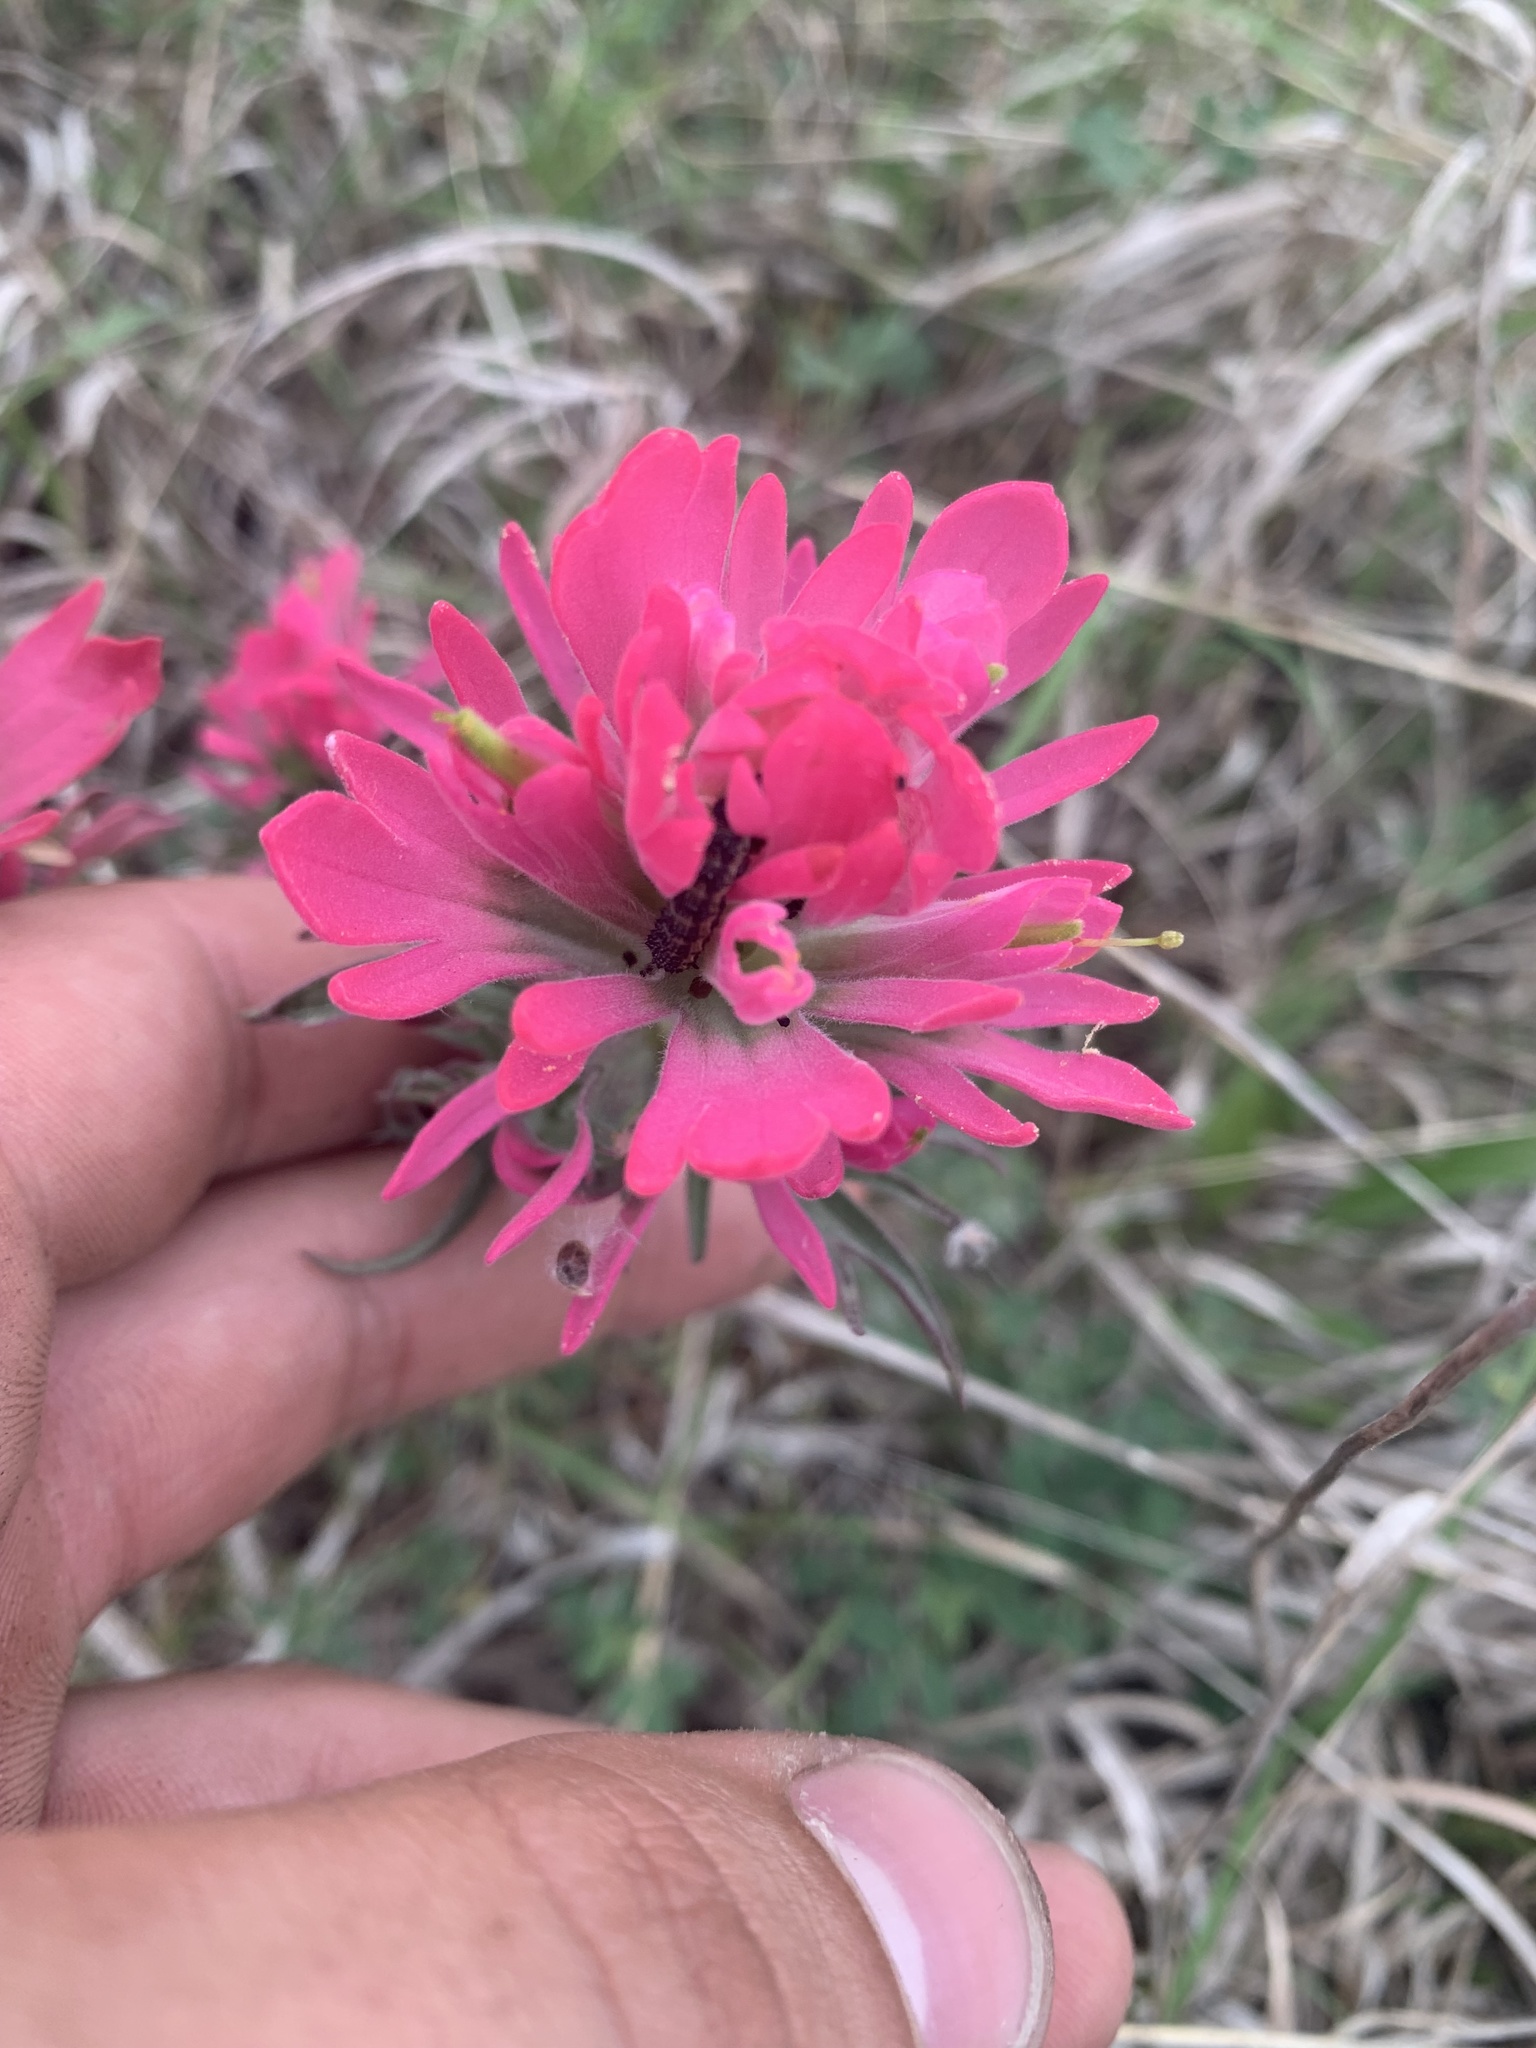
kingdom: Plantae
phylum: Tracheophyta
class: Magnoliopsida
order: Lamiales
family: Orobanchaceae
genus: Castilleja
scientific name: Castilleja purpurea
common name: Plains paintbrush
